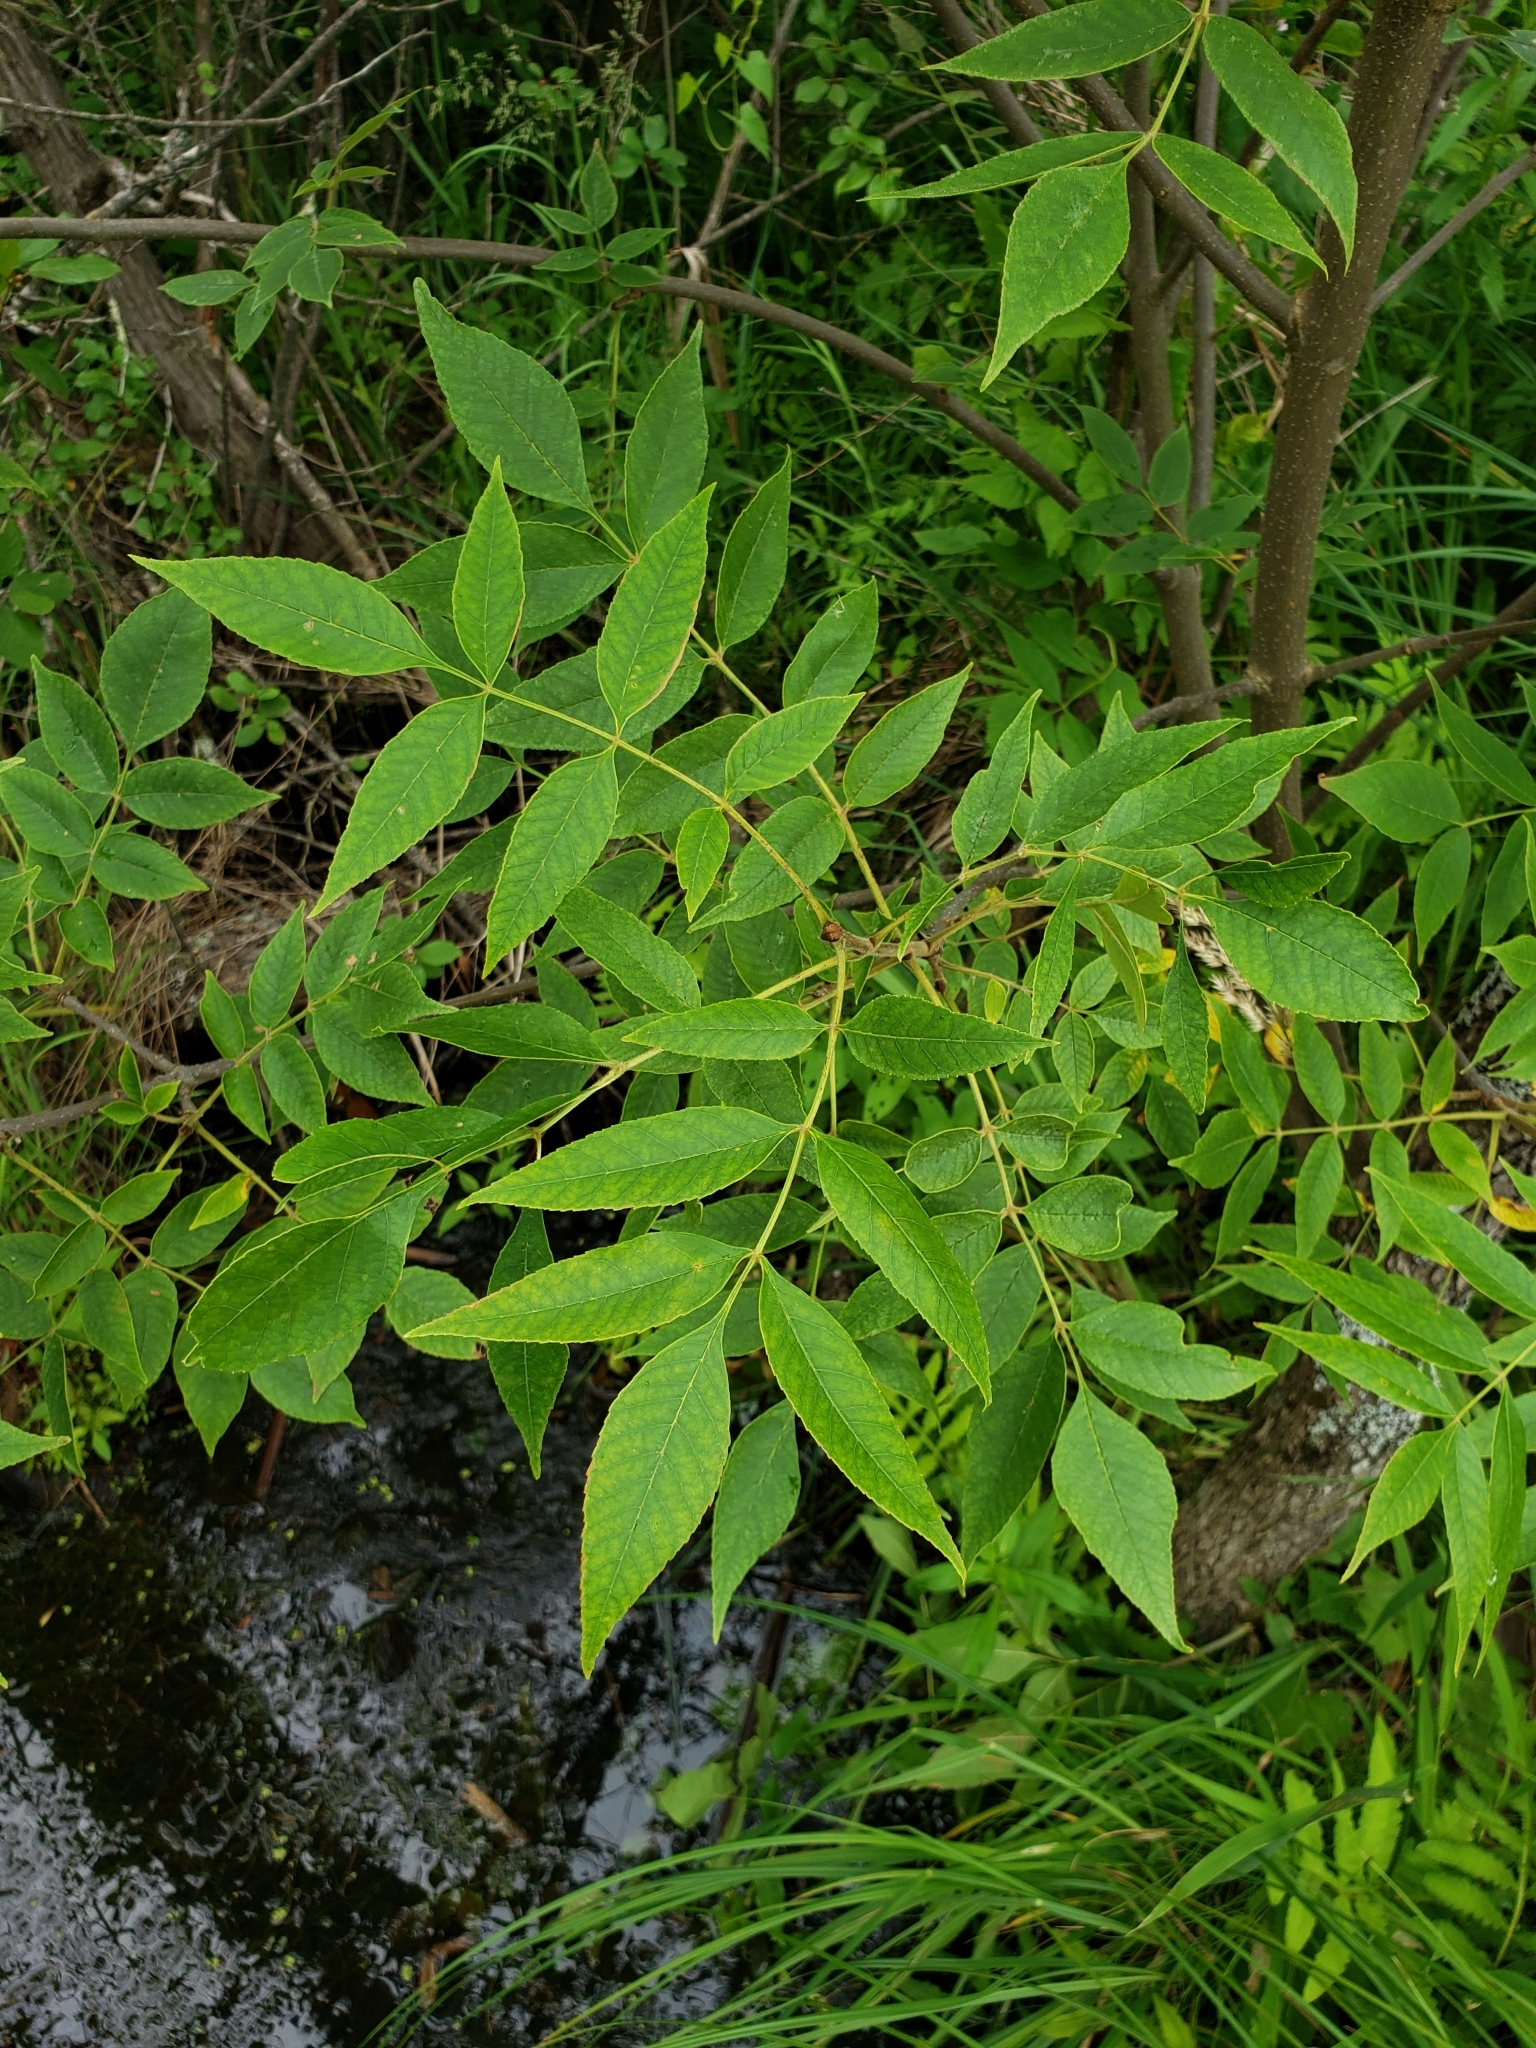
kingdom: Plantae
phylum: Tracheophyta
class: Magnoliopsida
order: Lamiales
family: Oleaceae
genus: Fraxinus
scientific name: Fraxinus pennsylvanica
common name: Green ash
